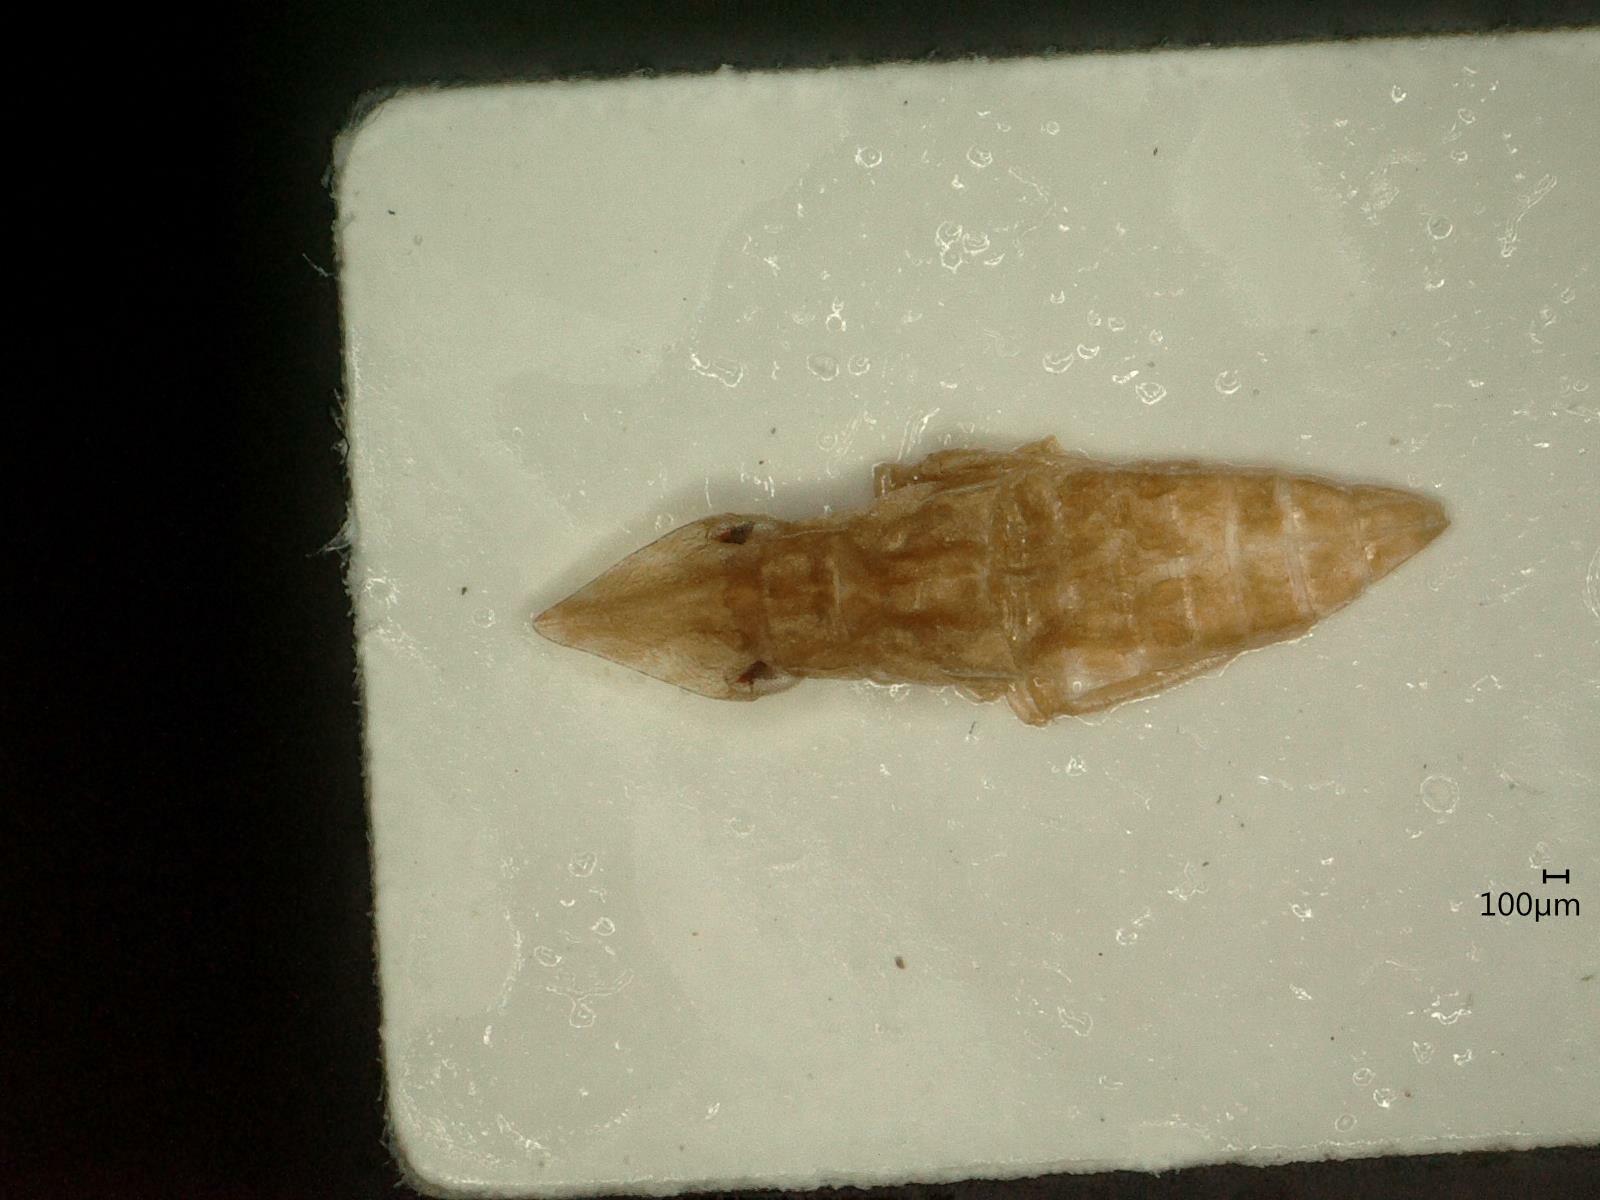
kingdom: Animalia
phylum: Arthropoda
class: Insecta
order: Hemiptera
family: Cicadellidae
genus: Eupelix
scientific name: Eupelix cuspidata
